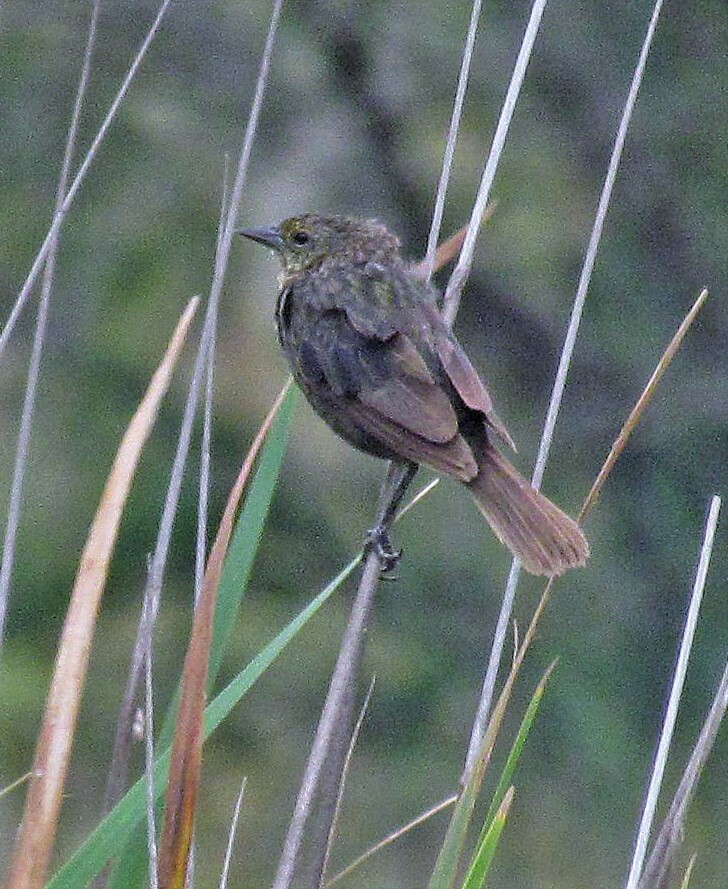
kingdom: Animalia
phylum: Chordata
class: Aves
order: Passeriformes
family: Icteridae
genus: Chrysomus
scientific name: Chrysomus ruficapillus
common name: Chestnut-capped blackbird
